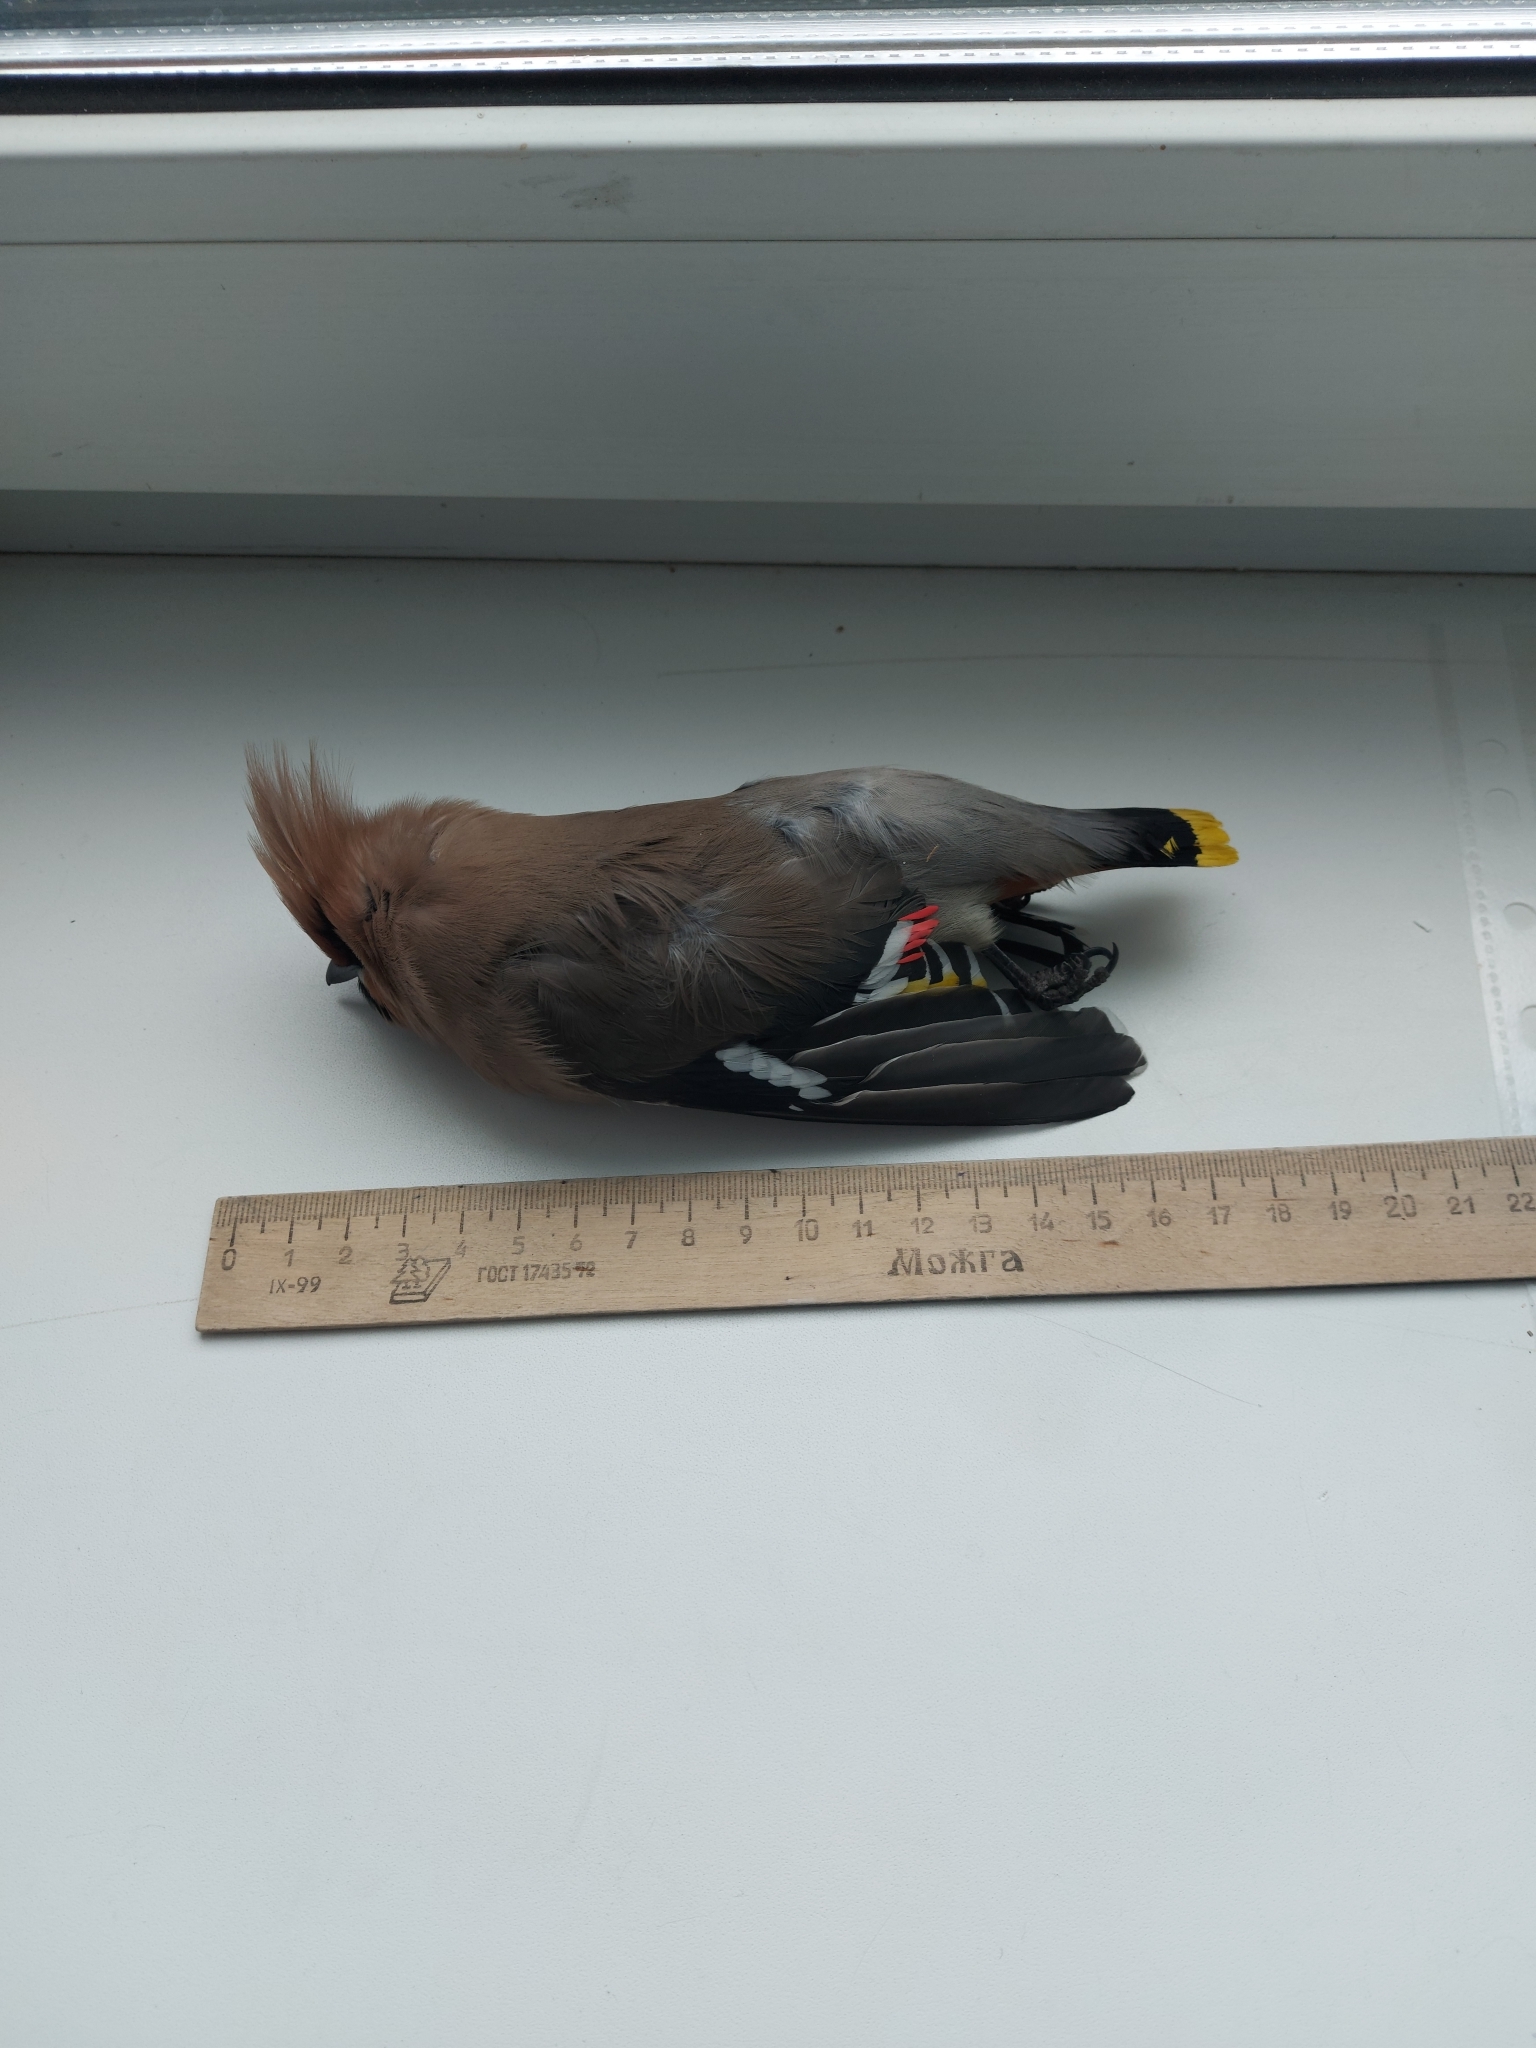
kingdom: Animalia
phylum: Chordata
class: Aves
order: Passeriformes
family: Bombycillidae
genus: Bombycilla
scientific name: Bombycilla garrulus
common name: Bohemian waxwing
